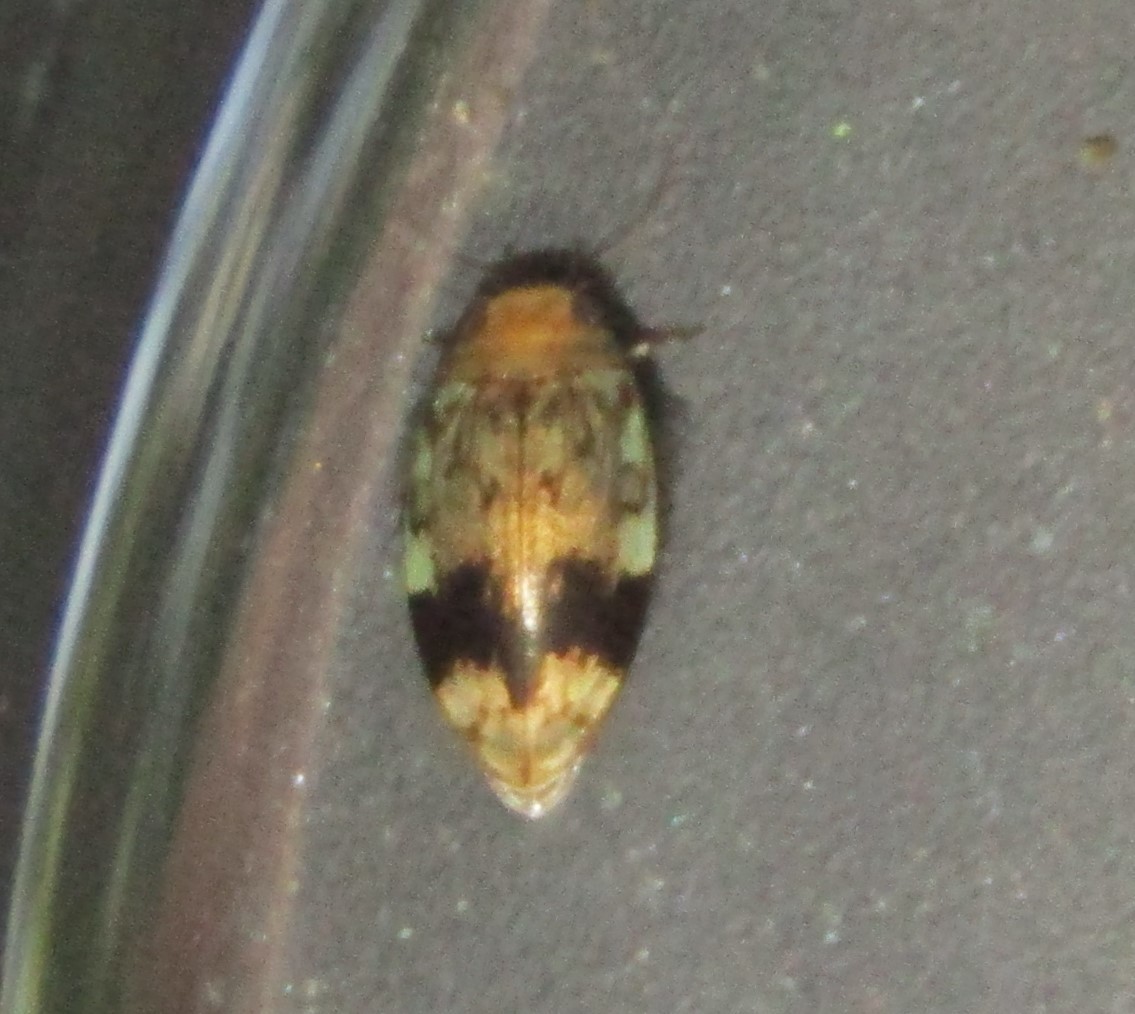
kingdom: Animalia
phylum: Arthropoda
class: Insecta
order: Coleoptera
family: Dytiscidae
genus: Laccophilus
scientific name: Laccophilus fasciatus
